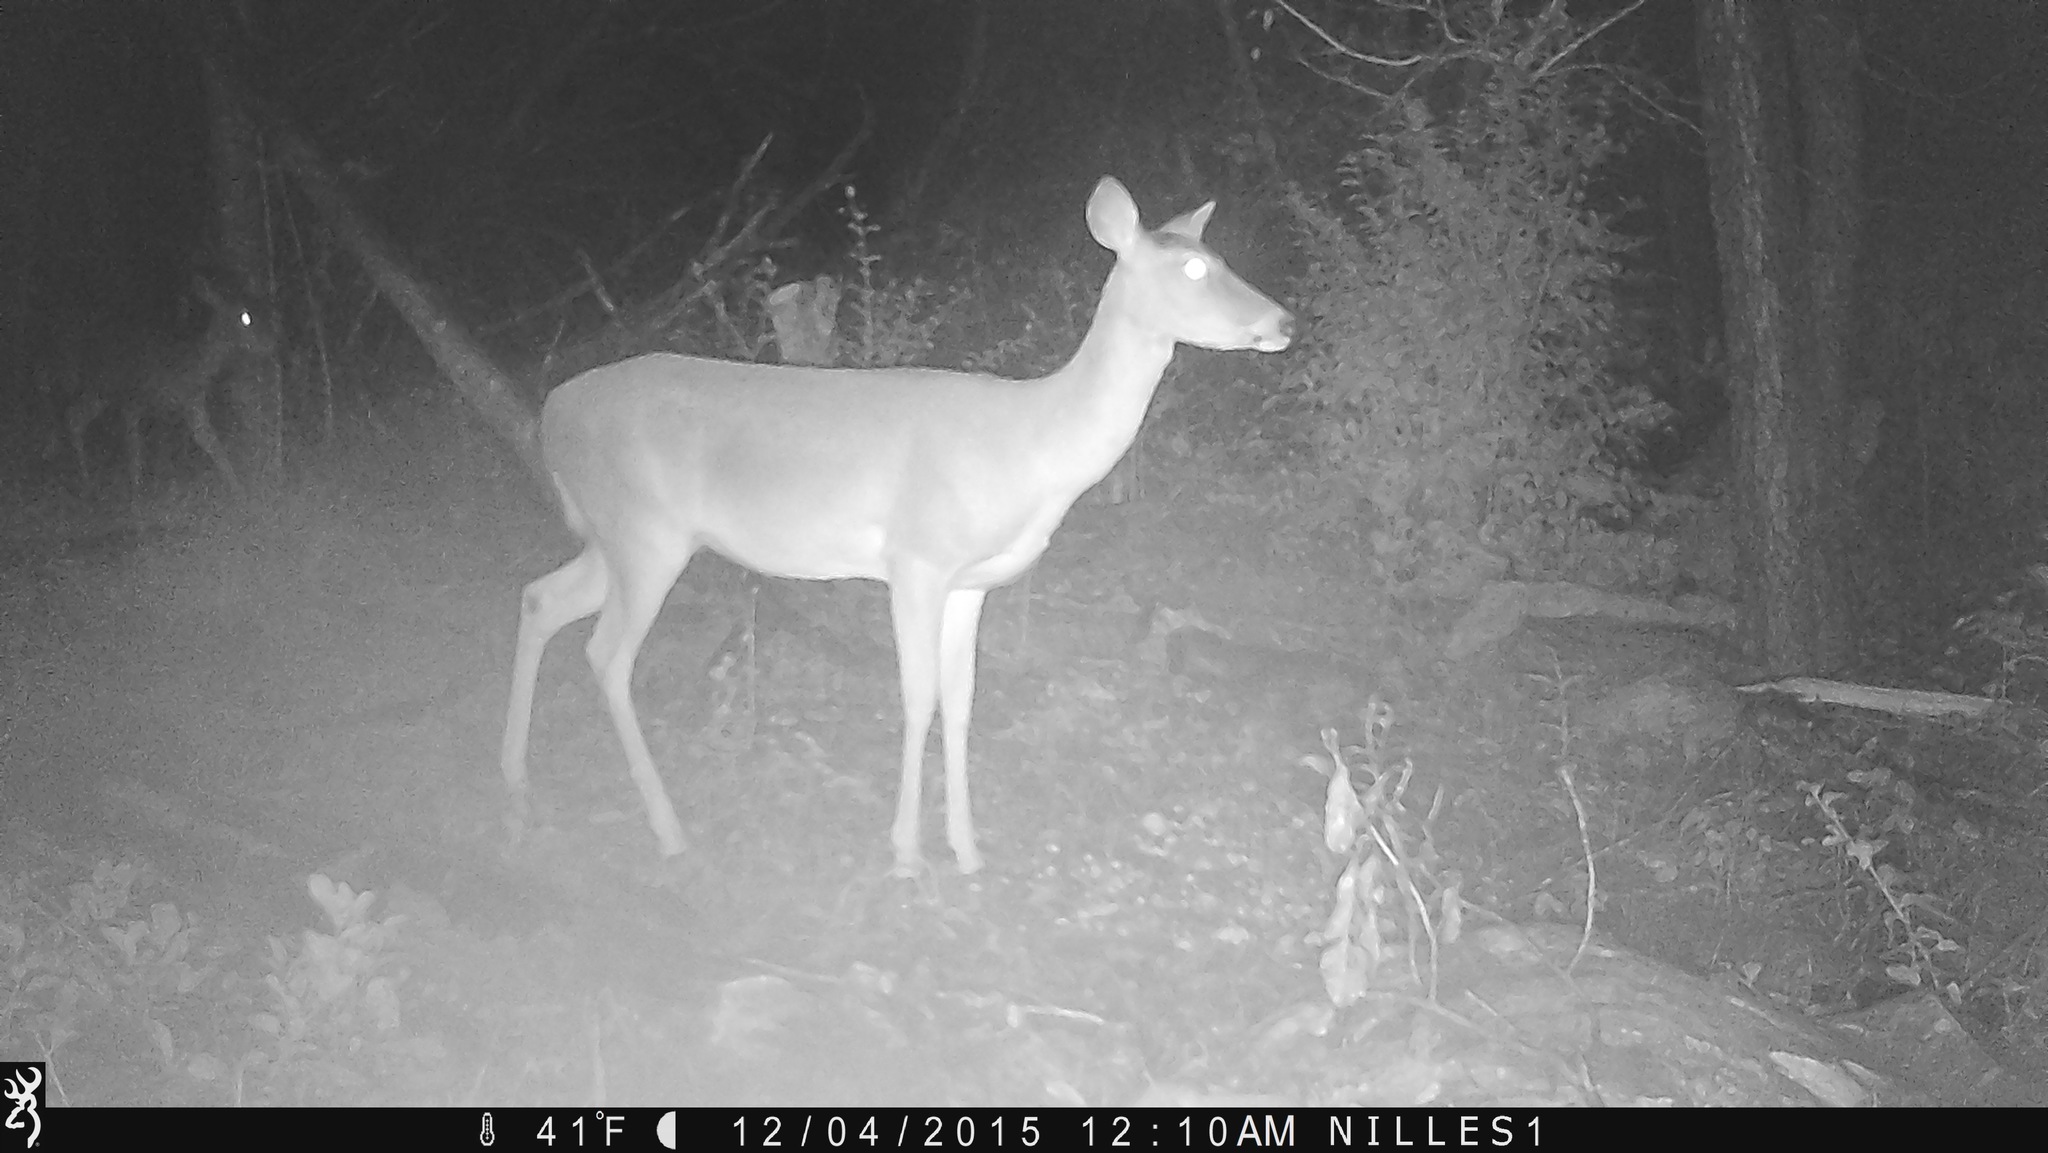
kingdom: Animalia
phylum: Chordata
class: Mammalia
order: Artiodactyla
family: Cervidae
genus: Odocoileus
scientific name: Odocoileus virginianus
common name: White-tailed deer
